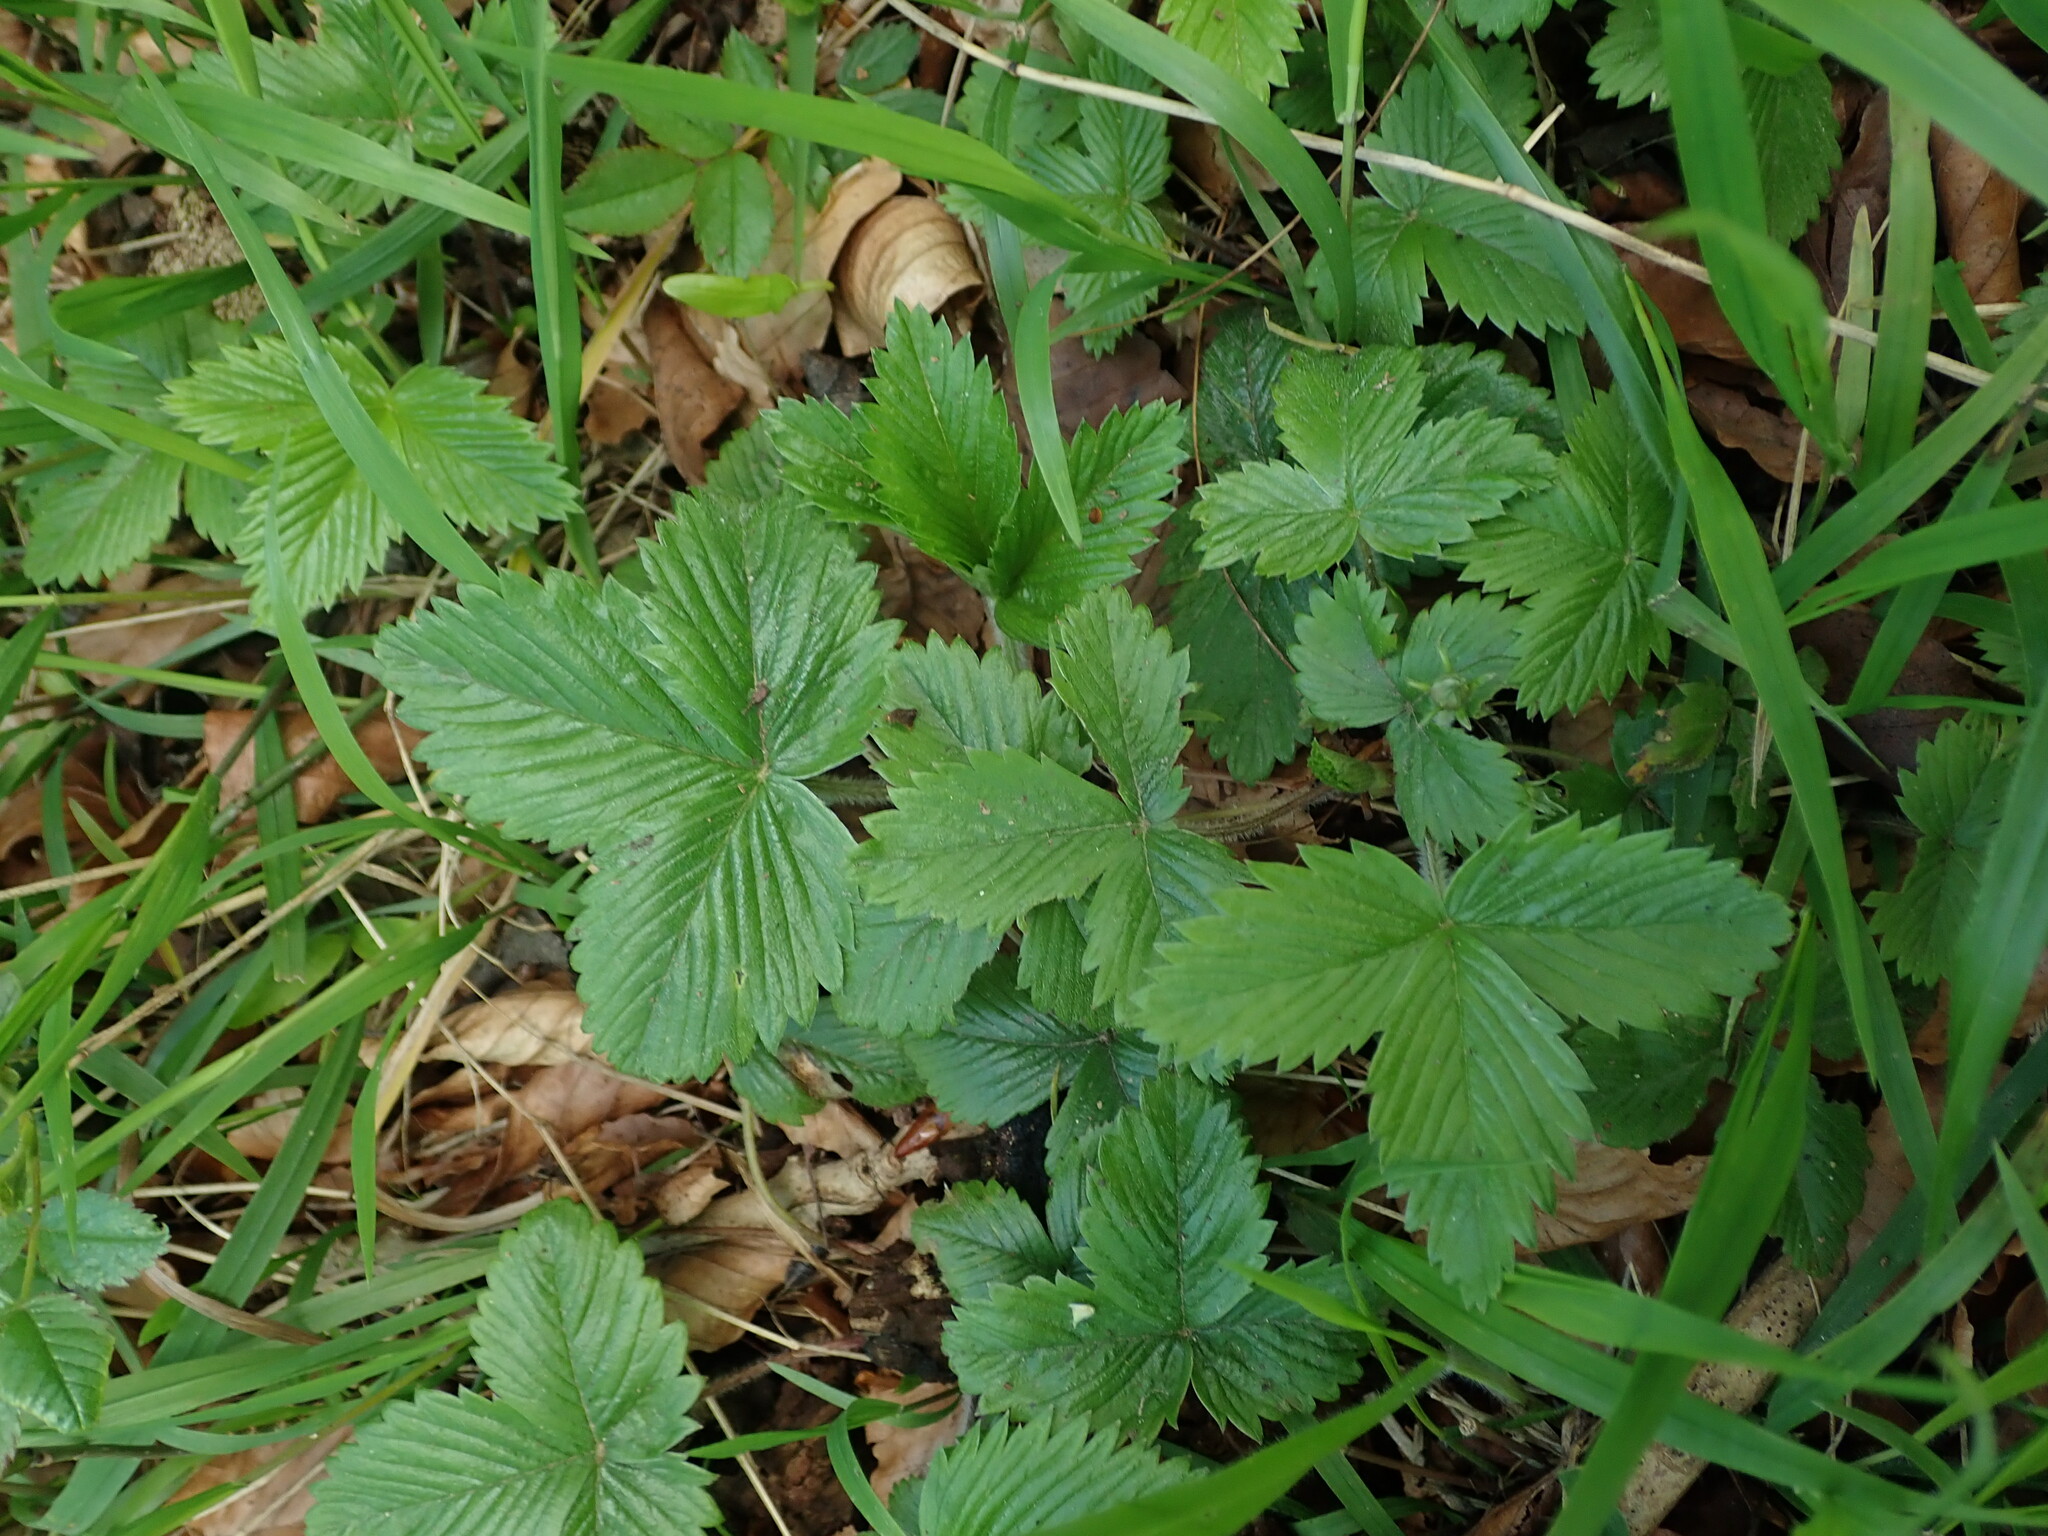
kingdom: Plantae
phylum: Tracheophyta
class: Magnoliopsida
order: Rosales
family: Rosaceae
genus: Fragaria
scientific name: Fragaria vesca
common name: Wild strawberry
